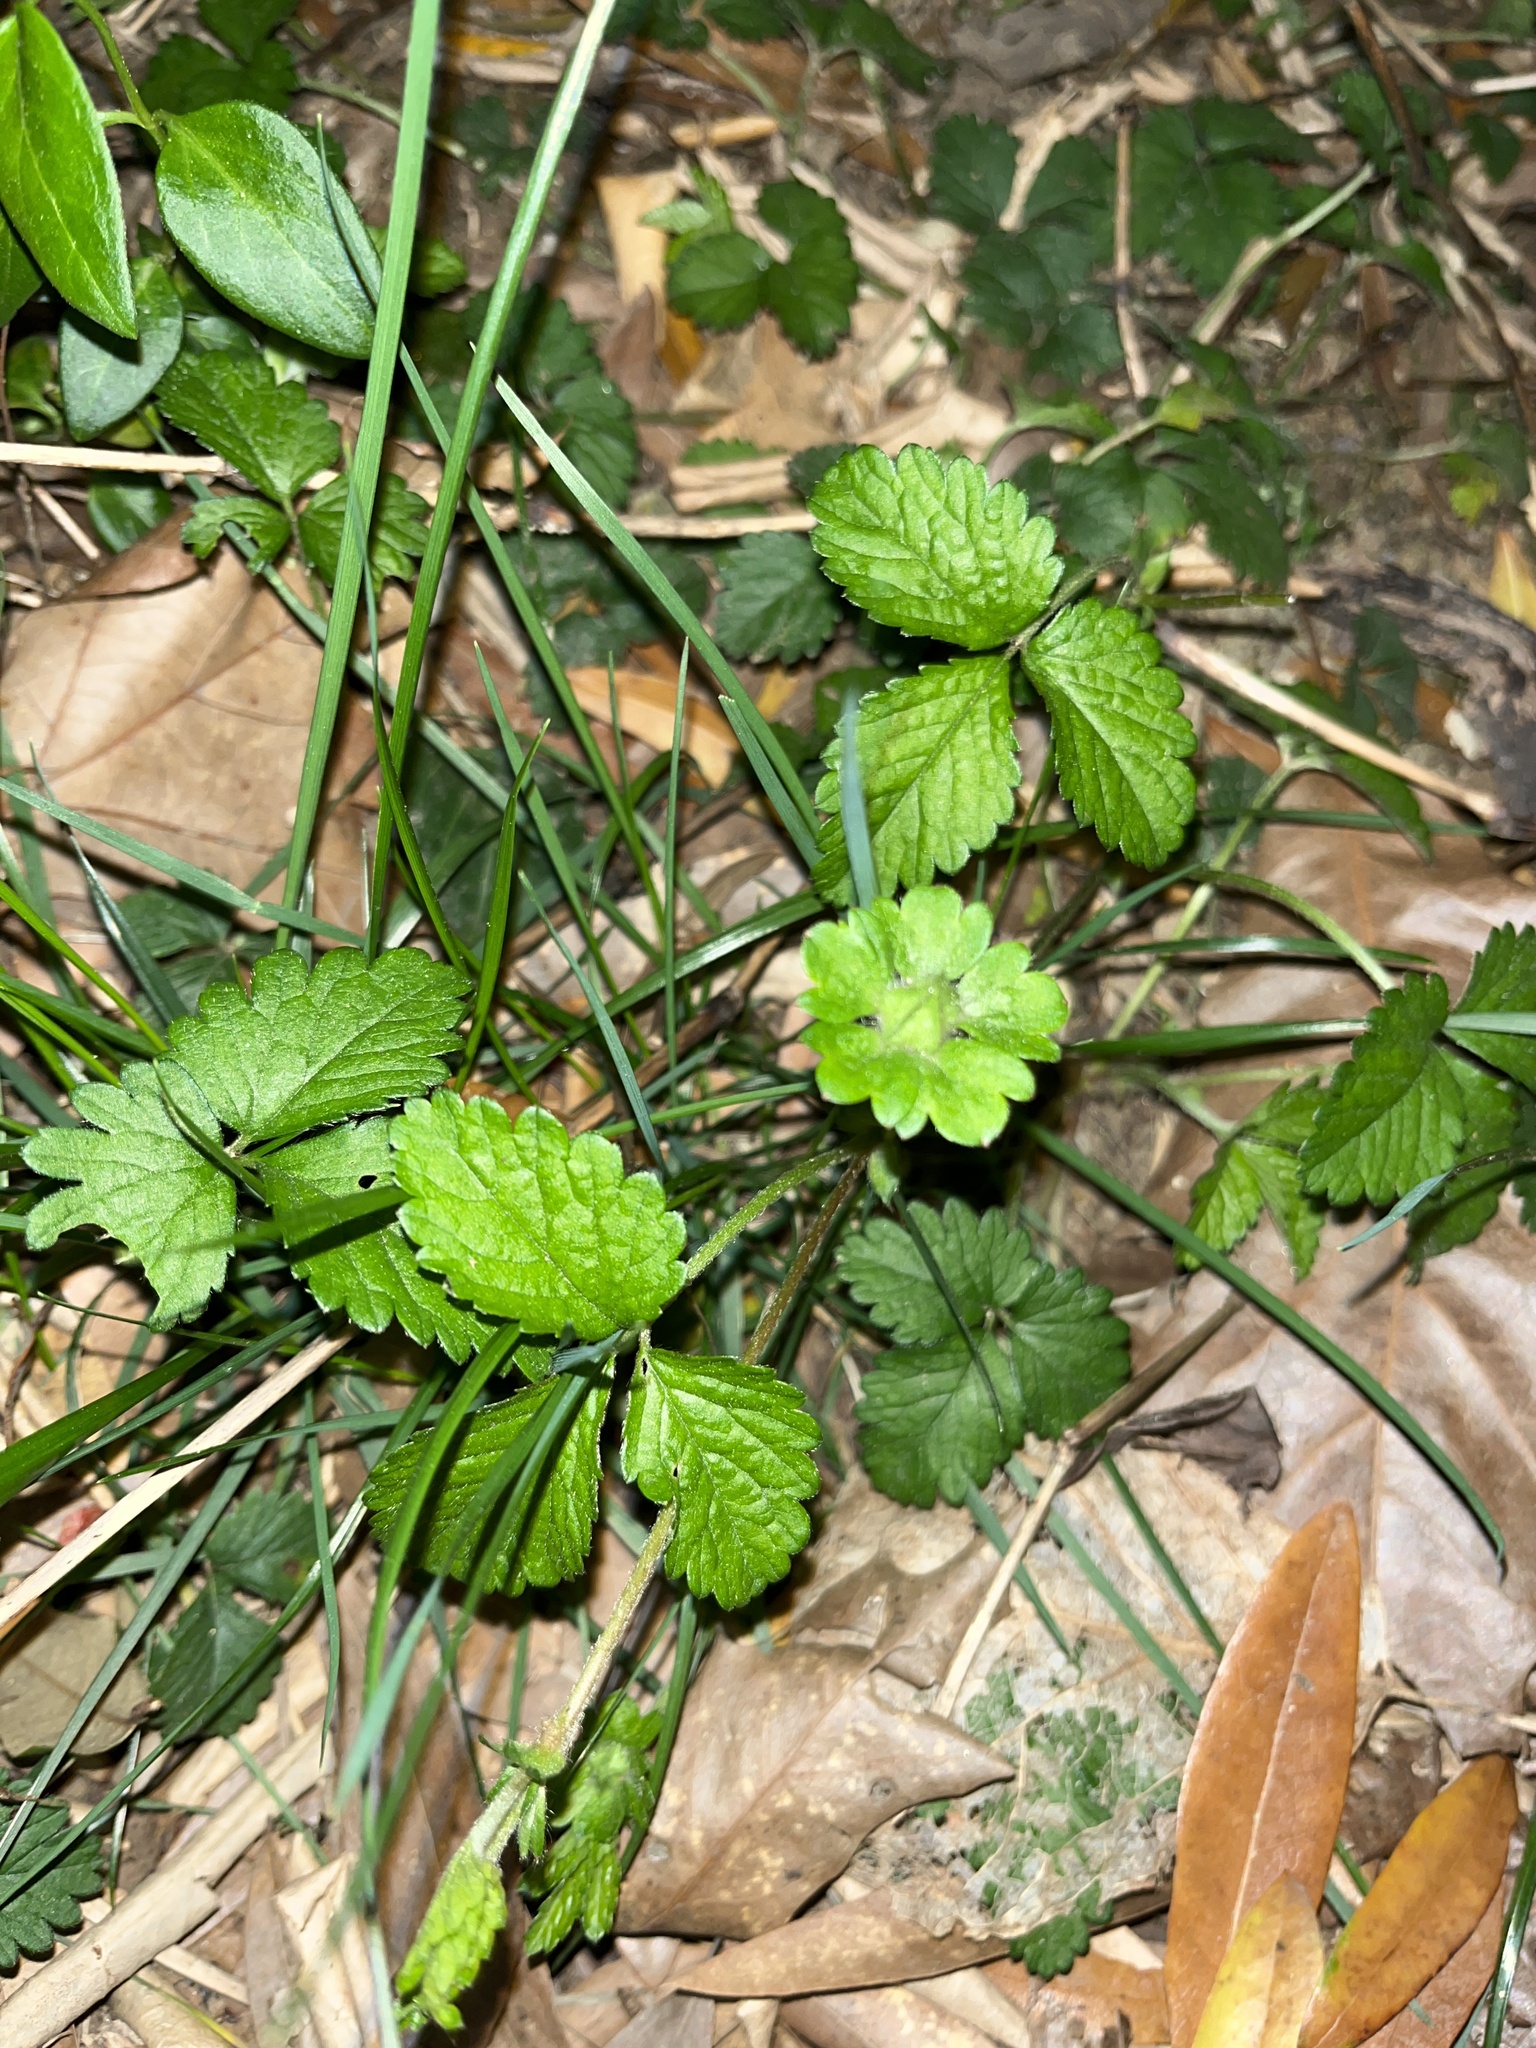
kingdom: Plantae
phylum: Tracheophyta
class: Magnoliopsida
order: Rosales
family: Rosaceae
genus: Potentilla
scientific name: Potentilla indica
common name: Yellow-flowered strawberry
